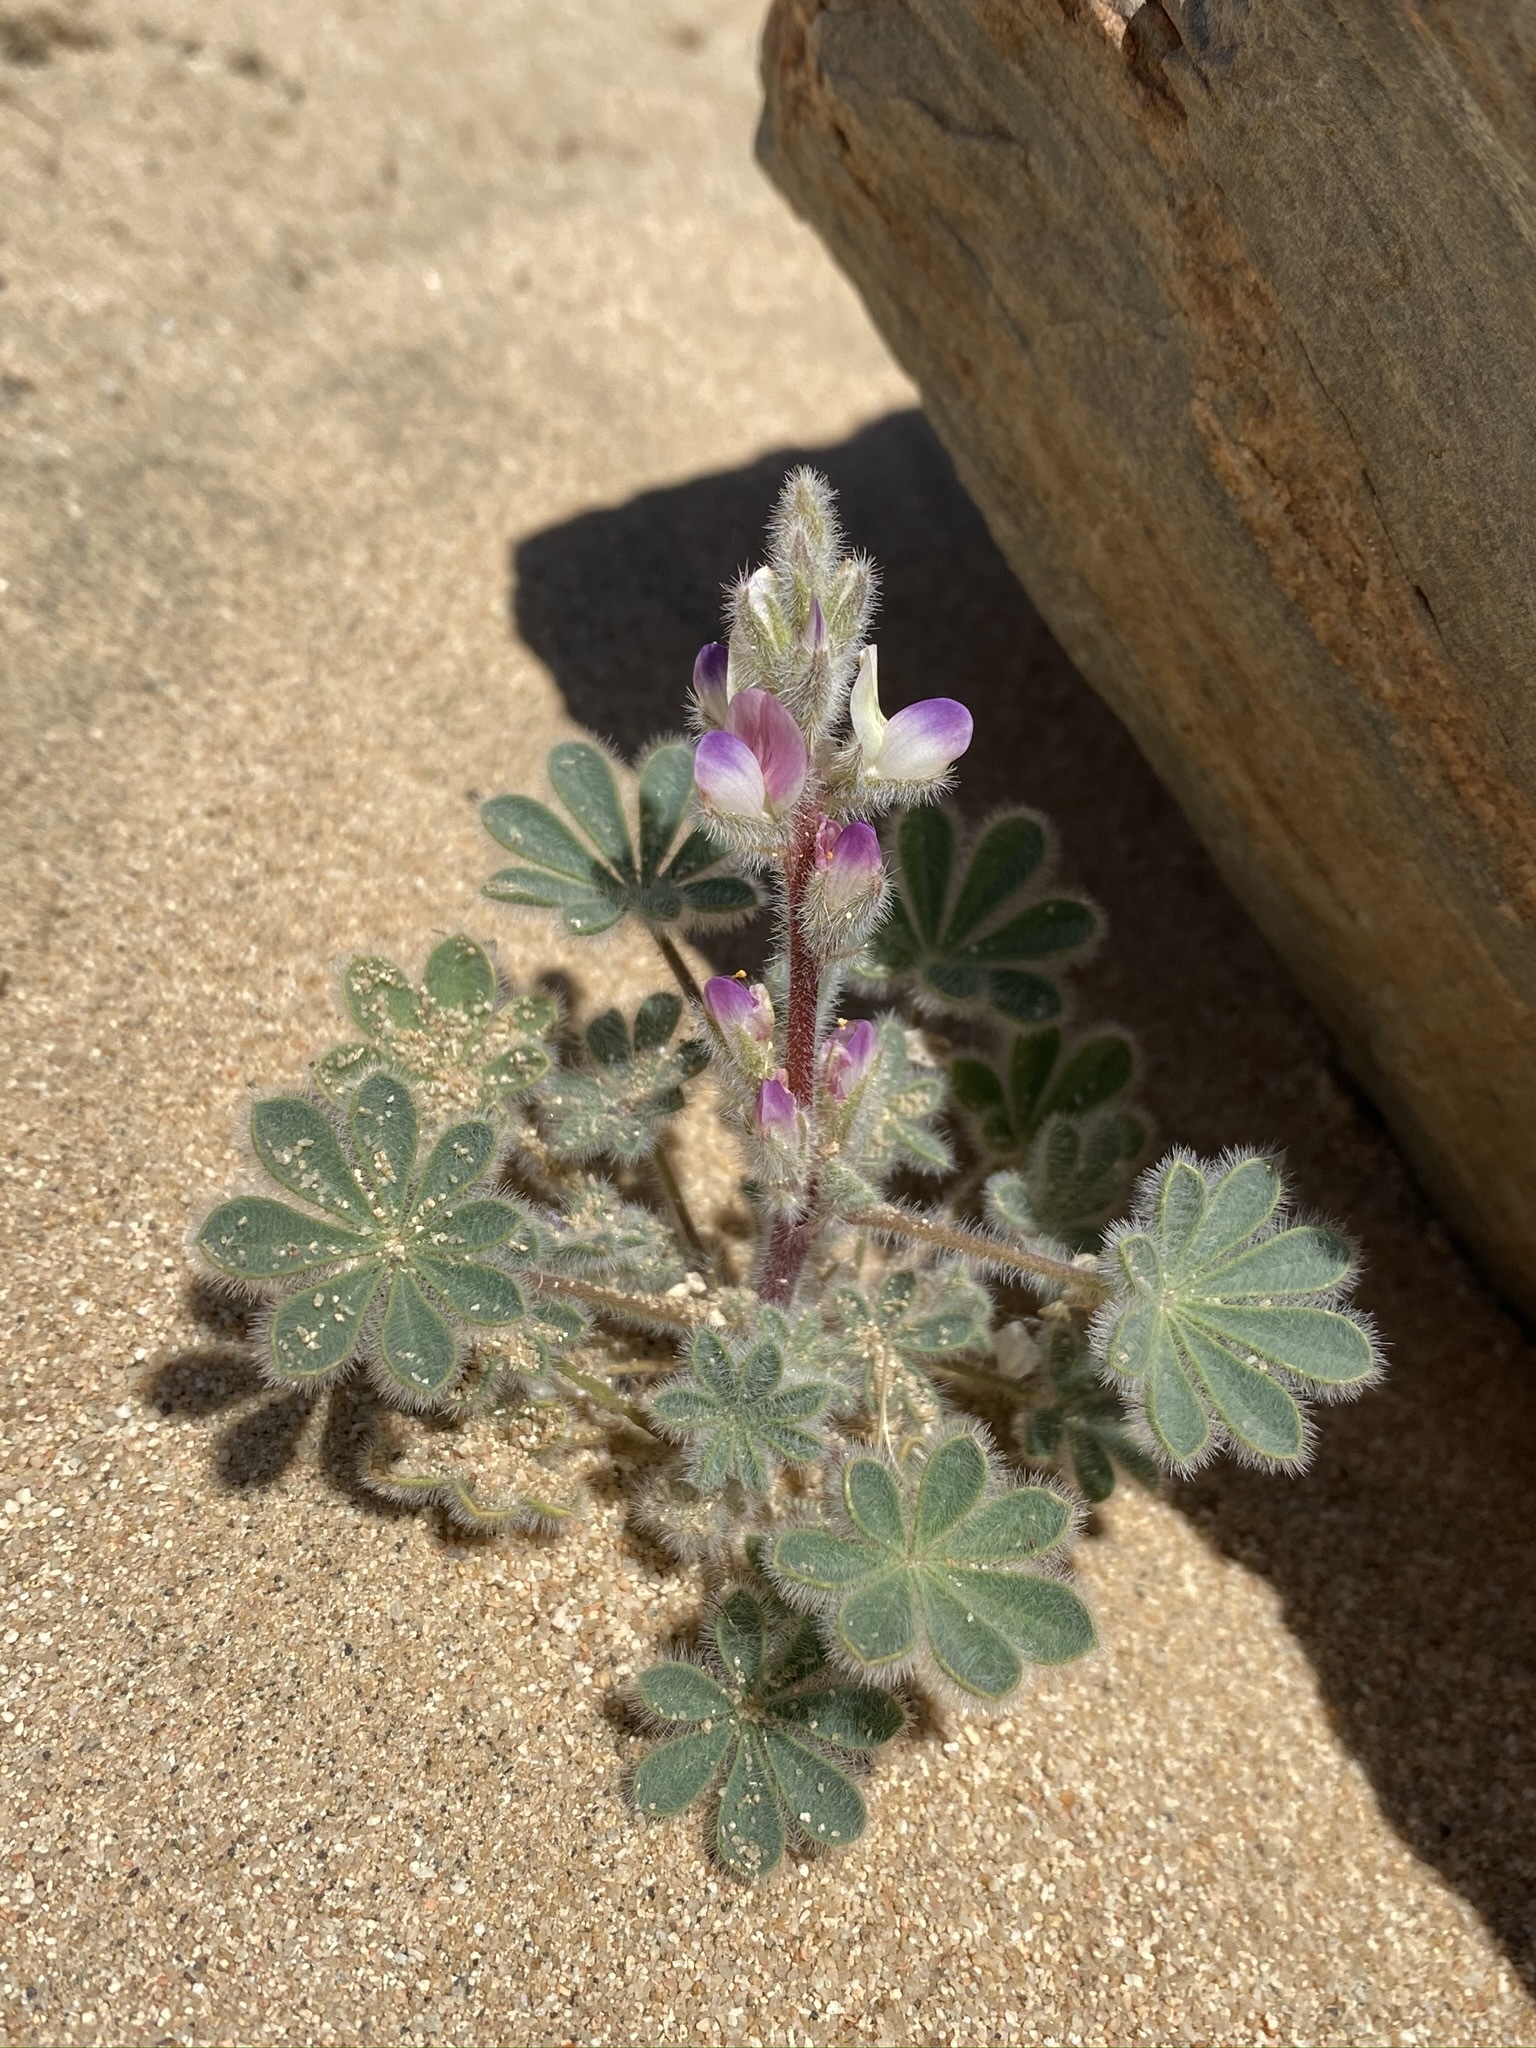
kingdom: Plantae
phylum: Tracheophyta
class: Magnoliopsida
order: Fabales
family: Fabaceae
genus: Lupinus
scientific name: Lupinus concinnus
